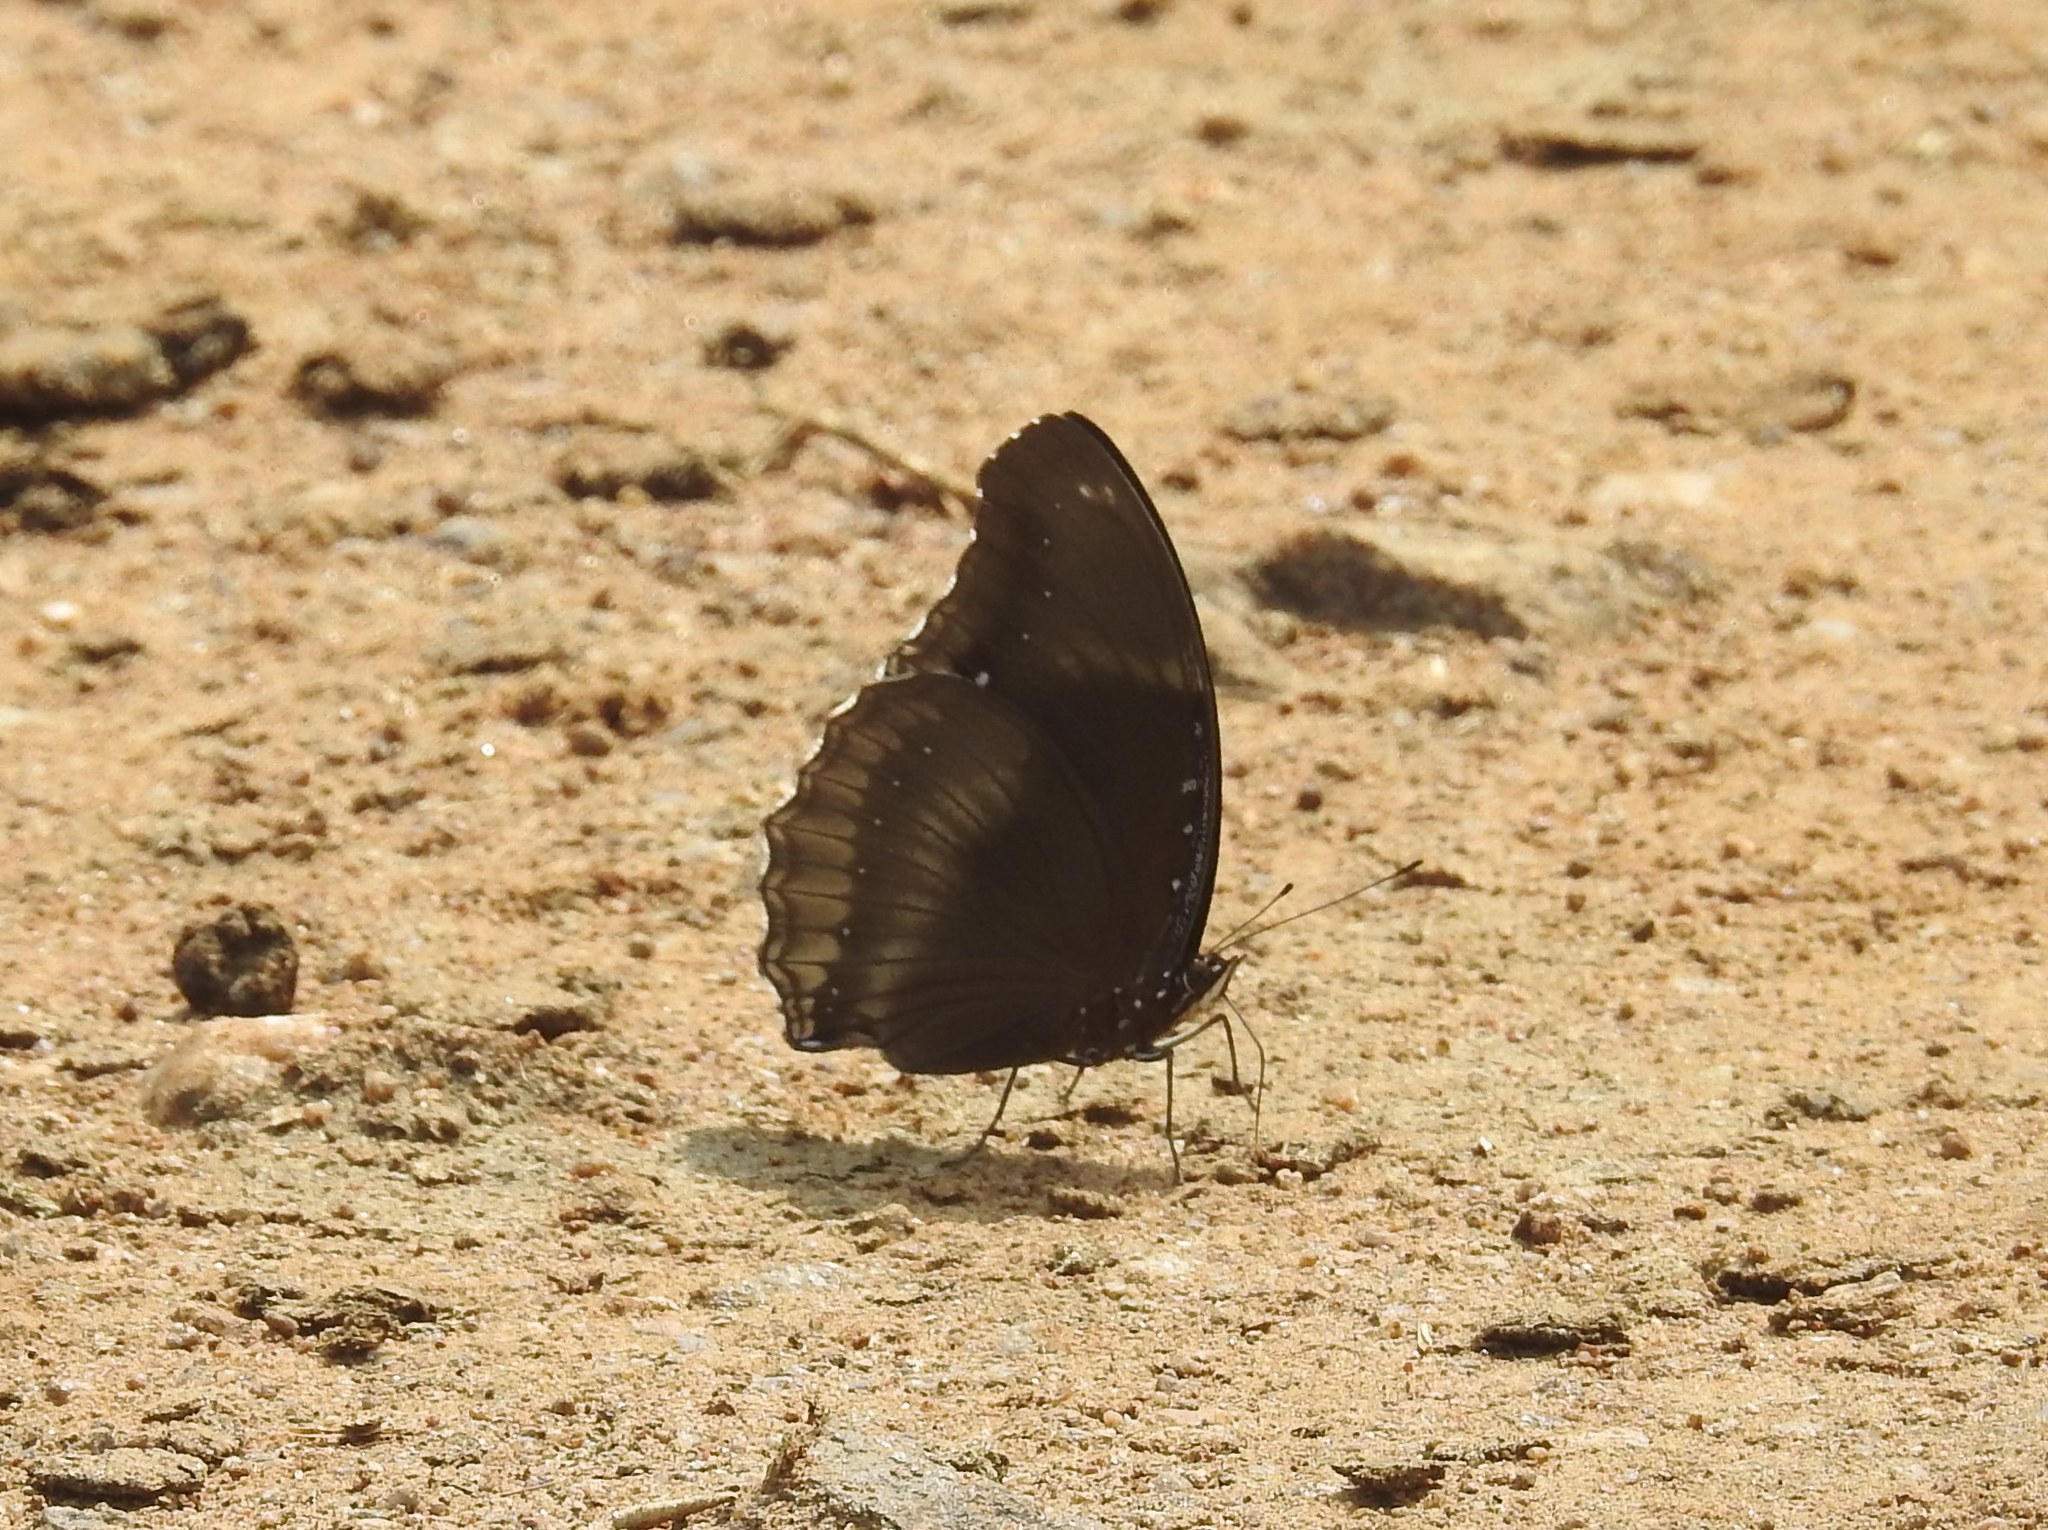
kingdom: Animalia
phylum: Arthropoda
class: Insecta
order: Lepidoptera
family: Nymphalidae
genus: Hypolimnas
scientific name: Hypolimnas bolina
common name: Great eggfly
